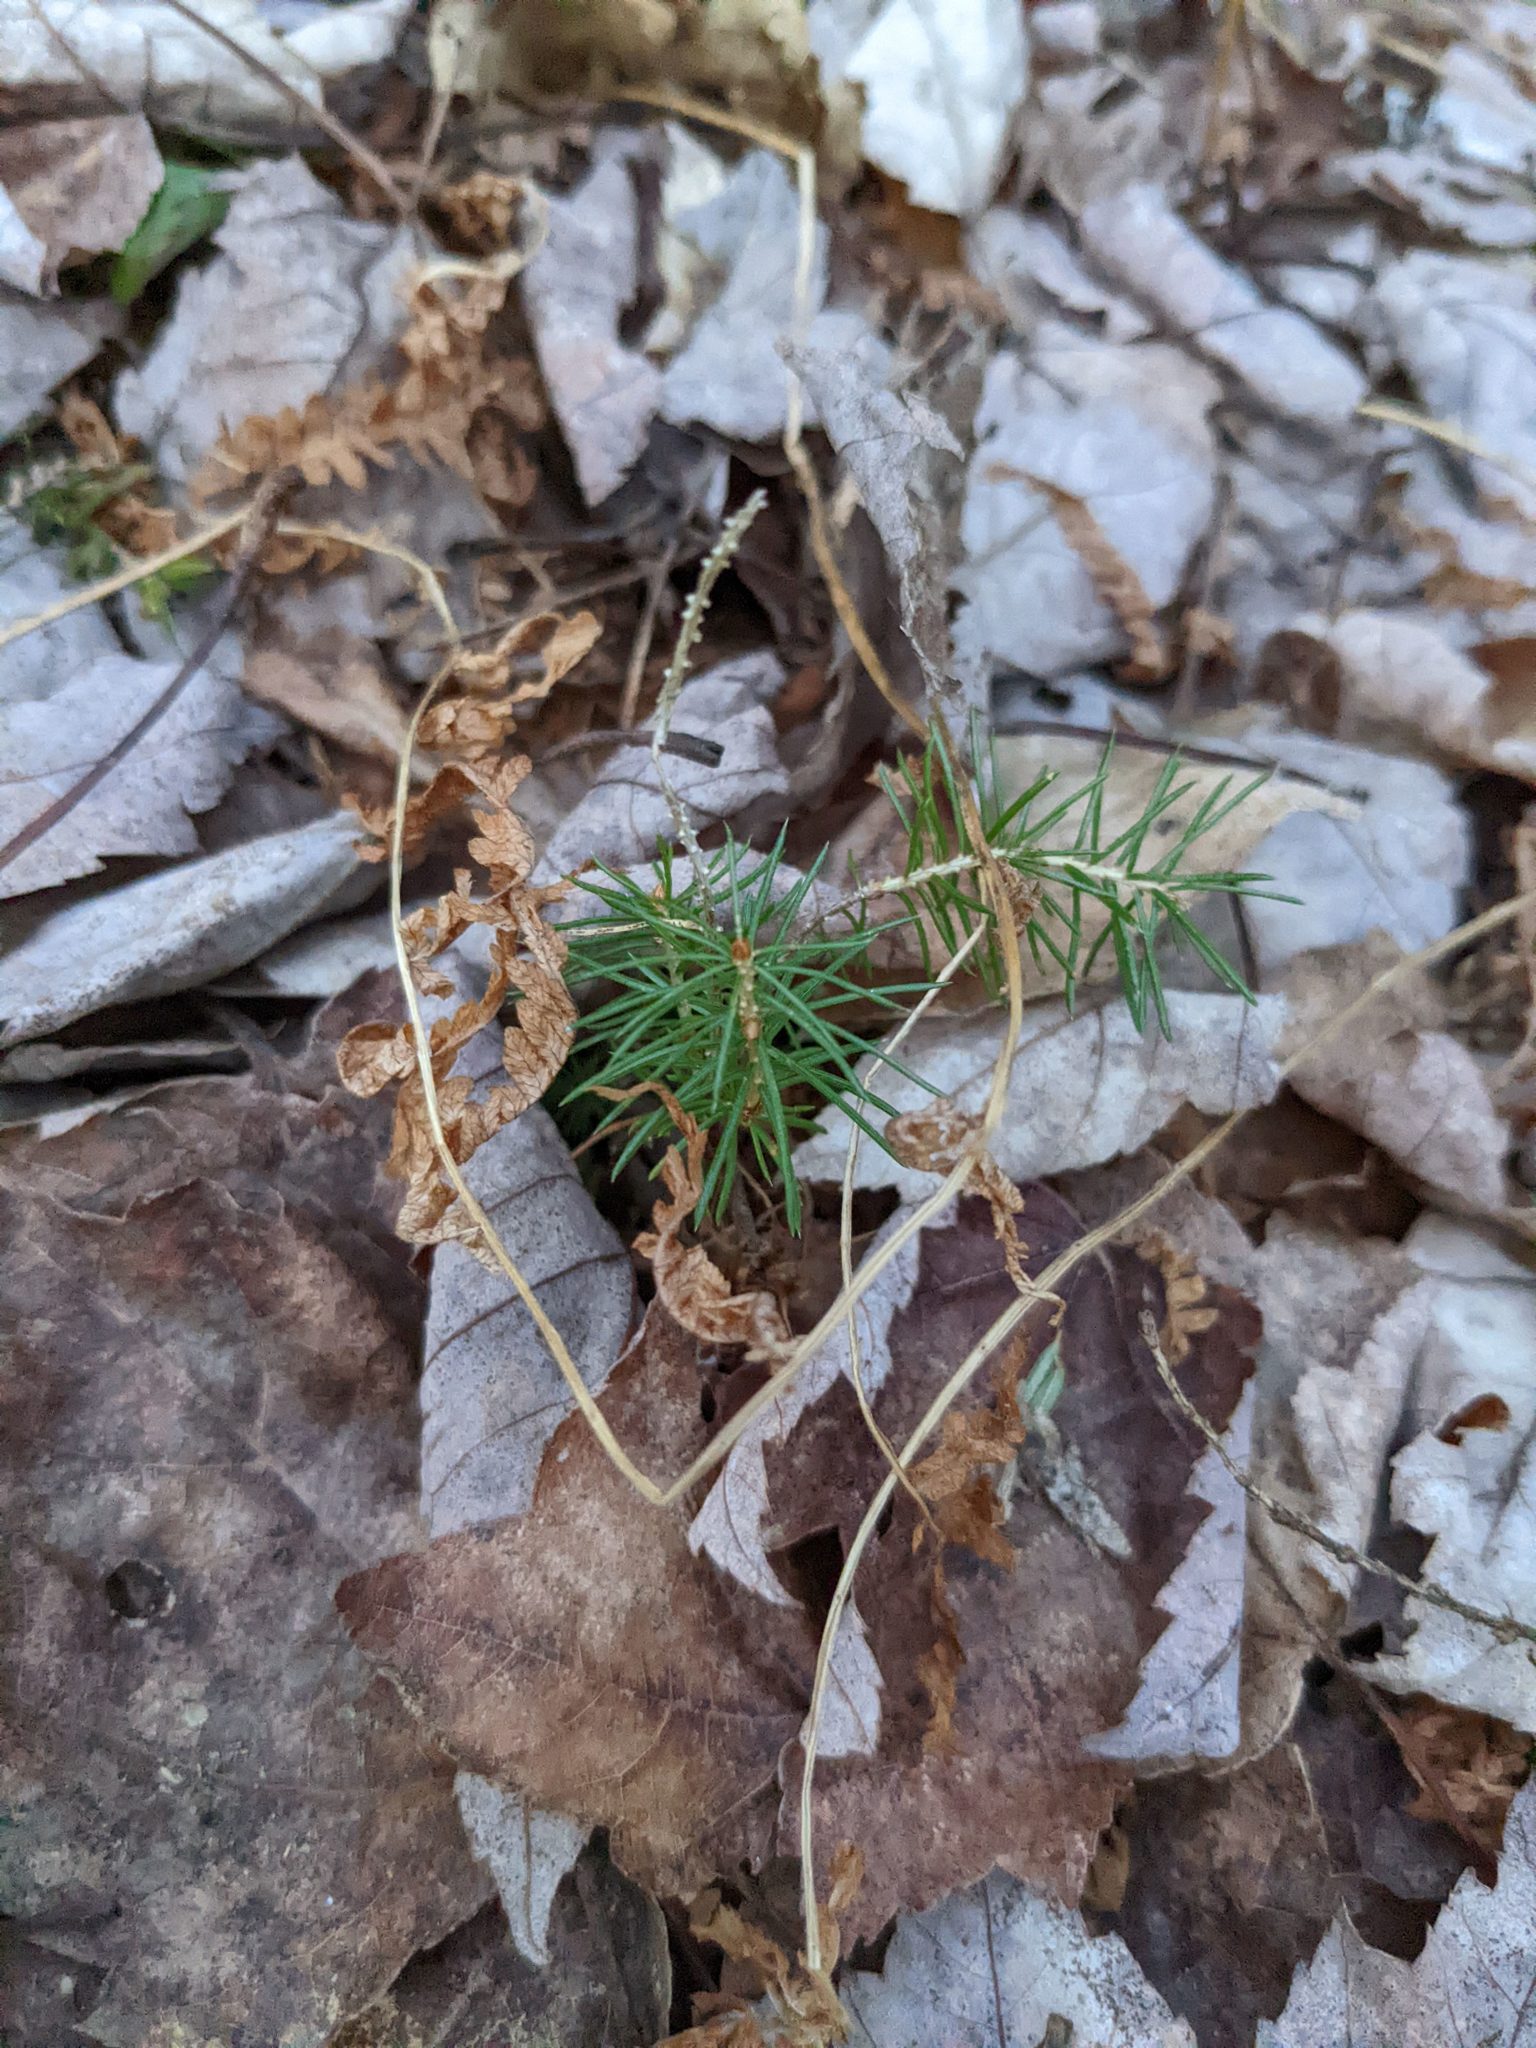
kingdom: Plantae
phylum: Tracheophyta
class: Pinopsida
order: Pinales
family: Pinaceae
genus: Picea
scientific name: Picea rubens
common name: Red spruce
